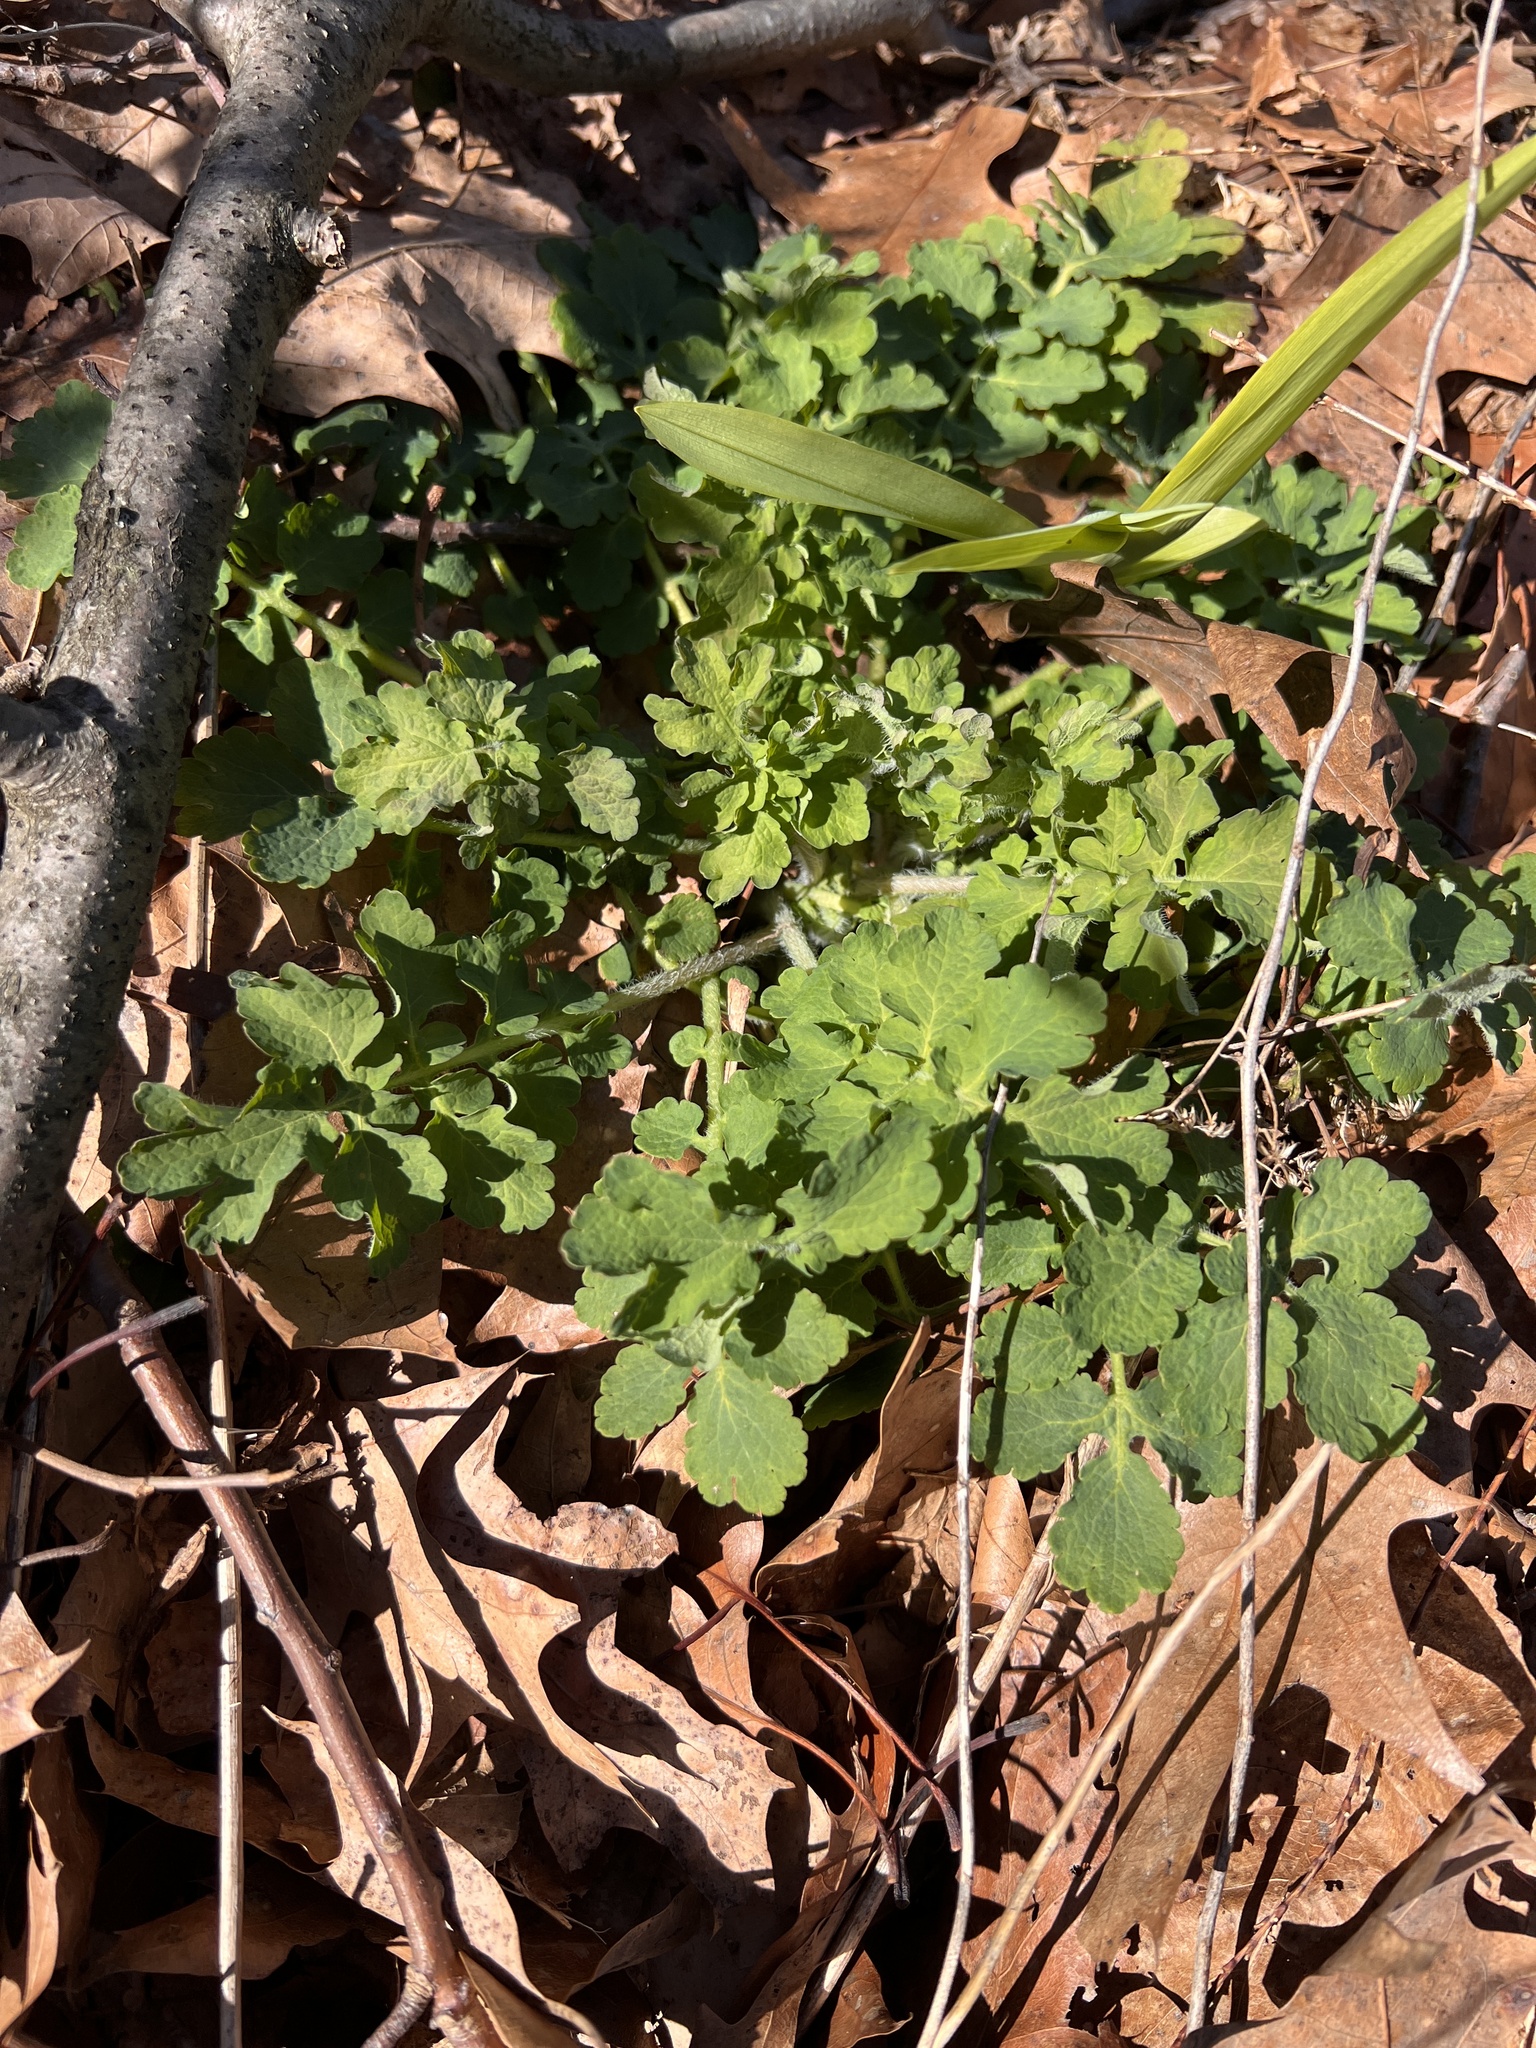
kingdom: Plantae
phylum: Tracheophyta
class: Magnoliopsida
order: Ranunculales
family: Papaveraceae
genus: Chelidonium
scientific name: Chelidonium majus
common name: Greater celandine
